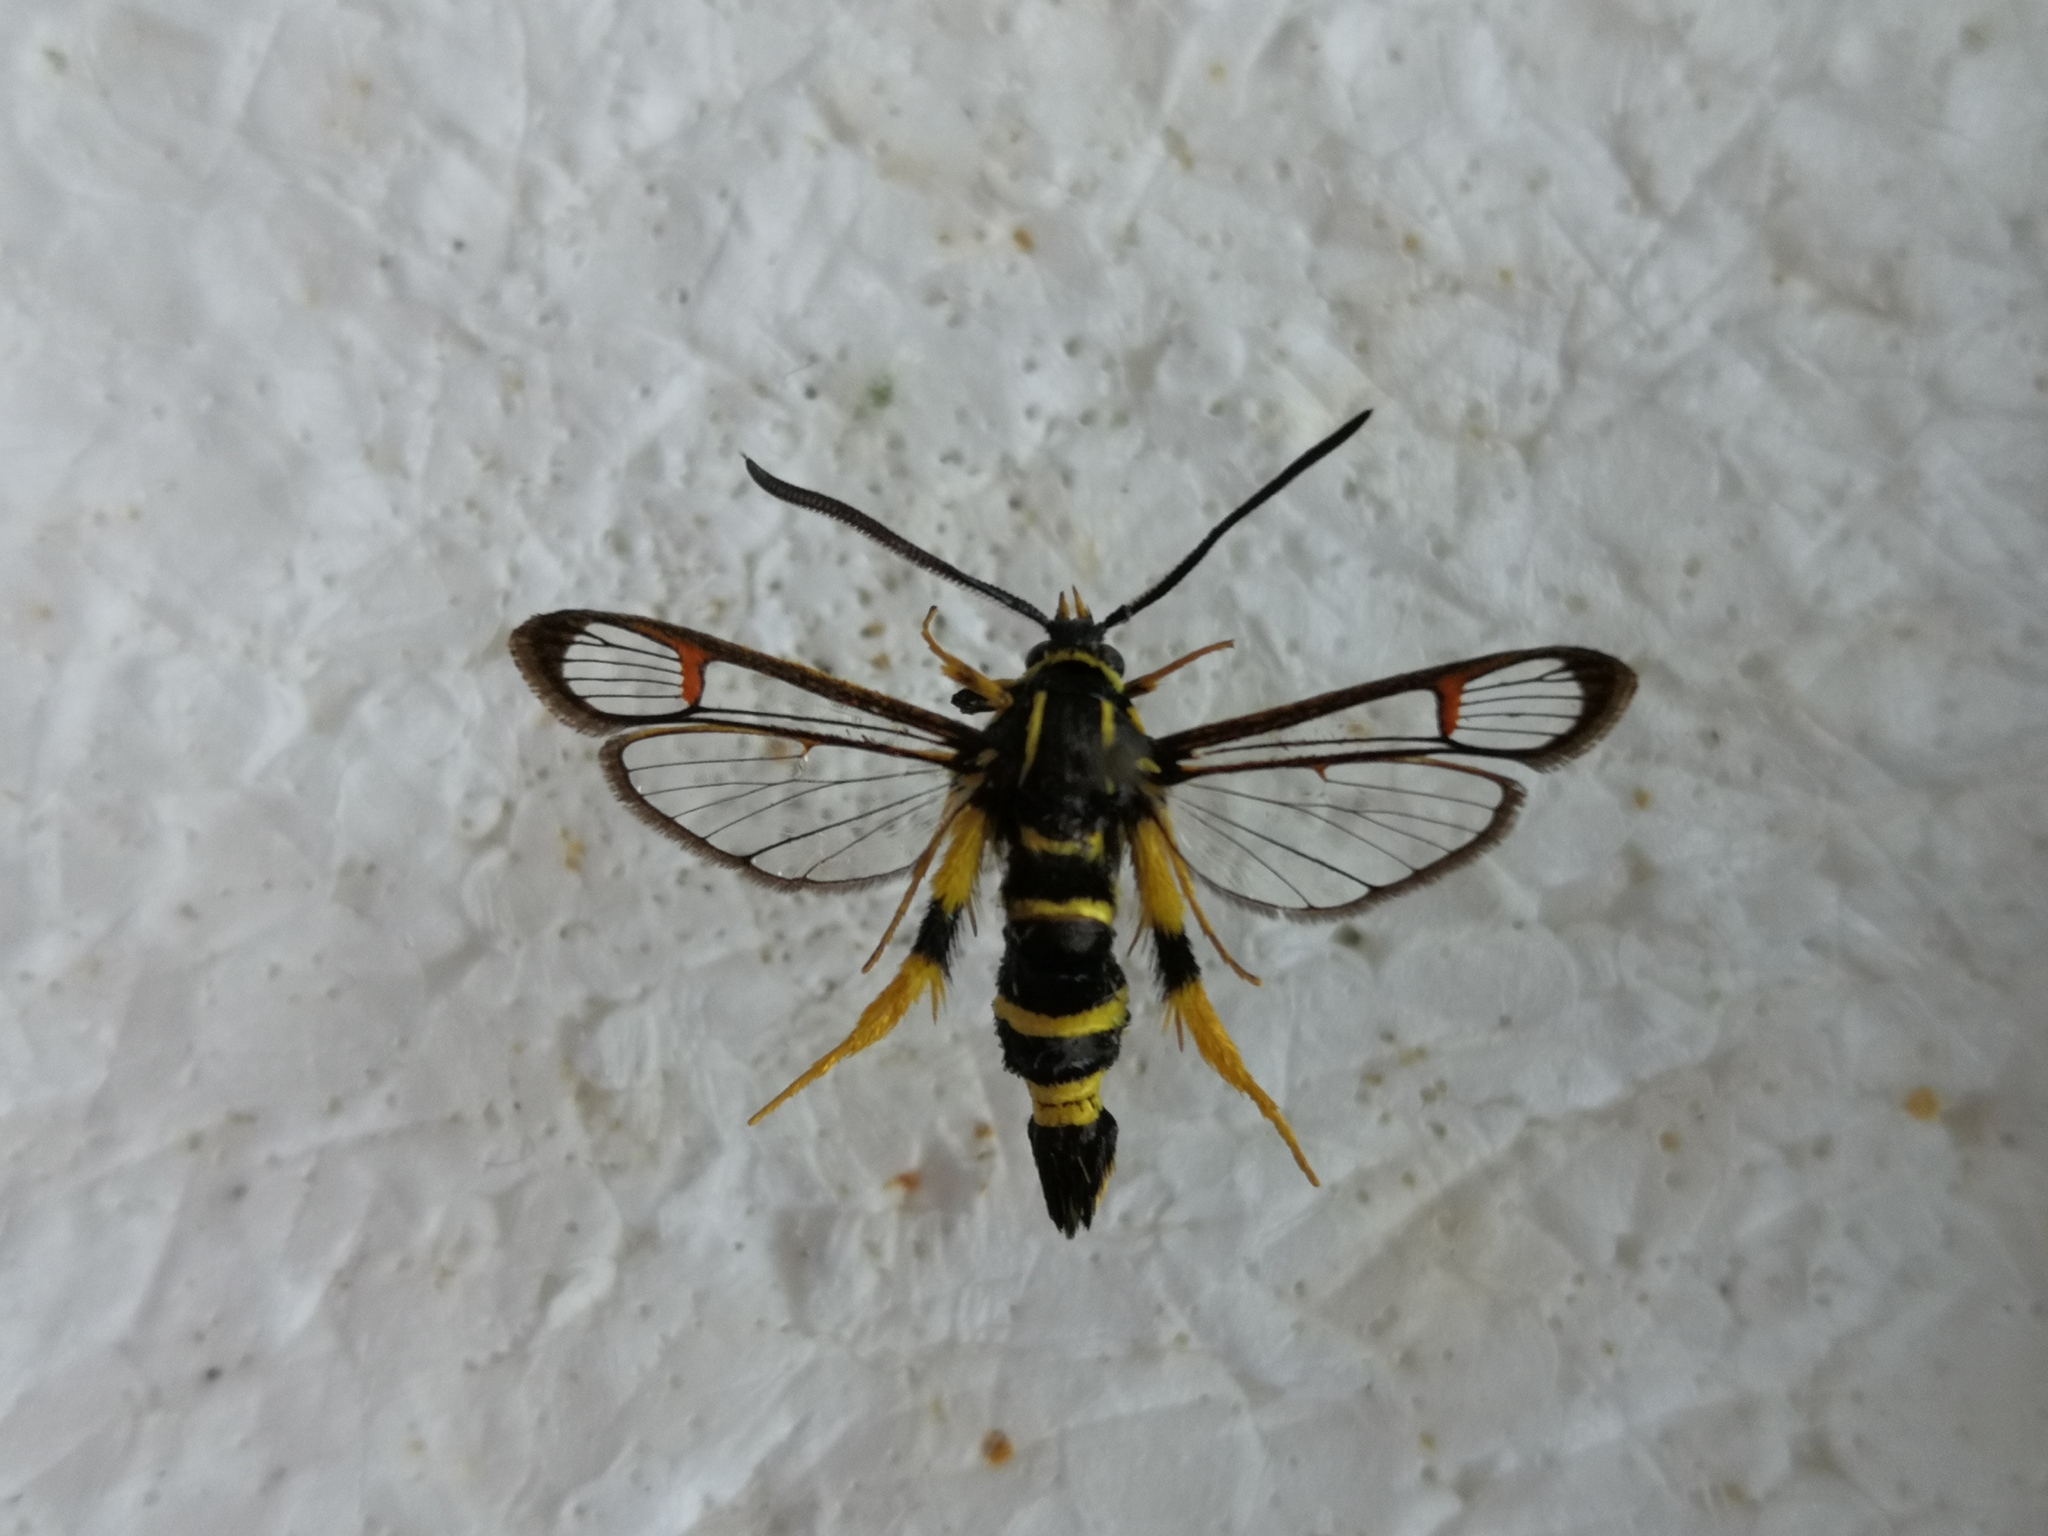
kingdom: Animalia
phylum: Arthropoda
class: Insecta
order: Lepidoptera
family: Sesiidae
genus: Synanthedon
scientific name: Synanthedon vespiformis
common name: Yellow-legged clearwing
